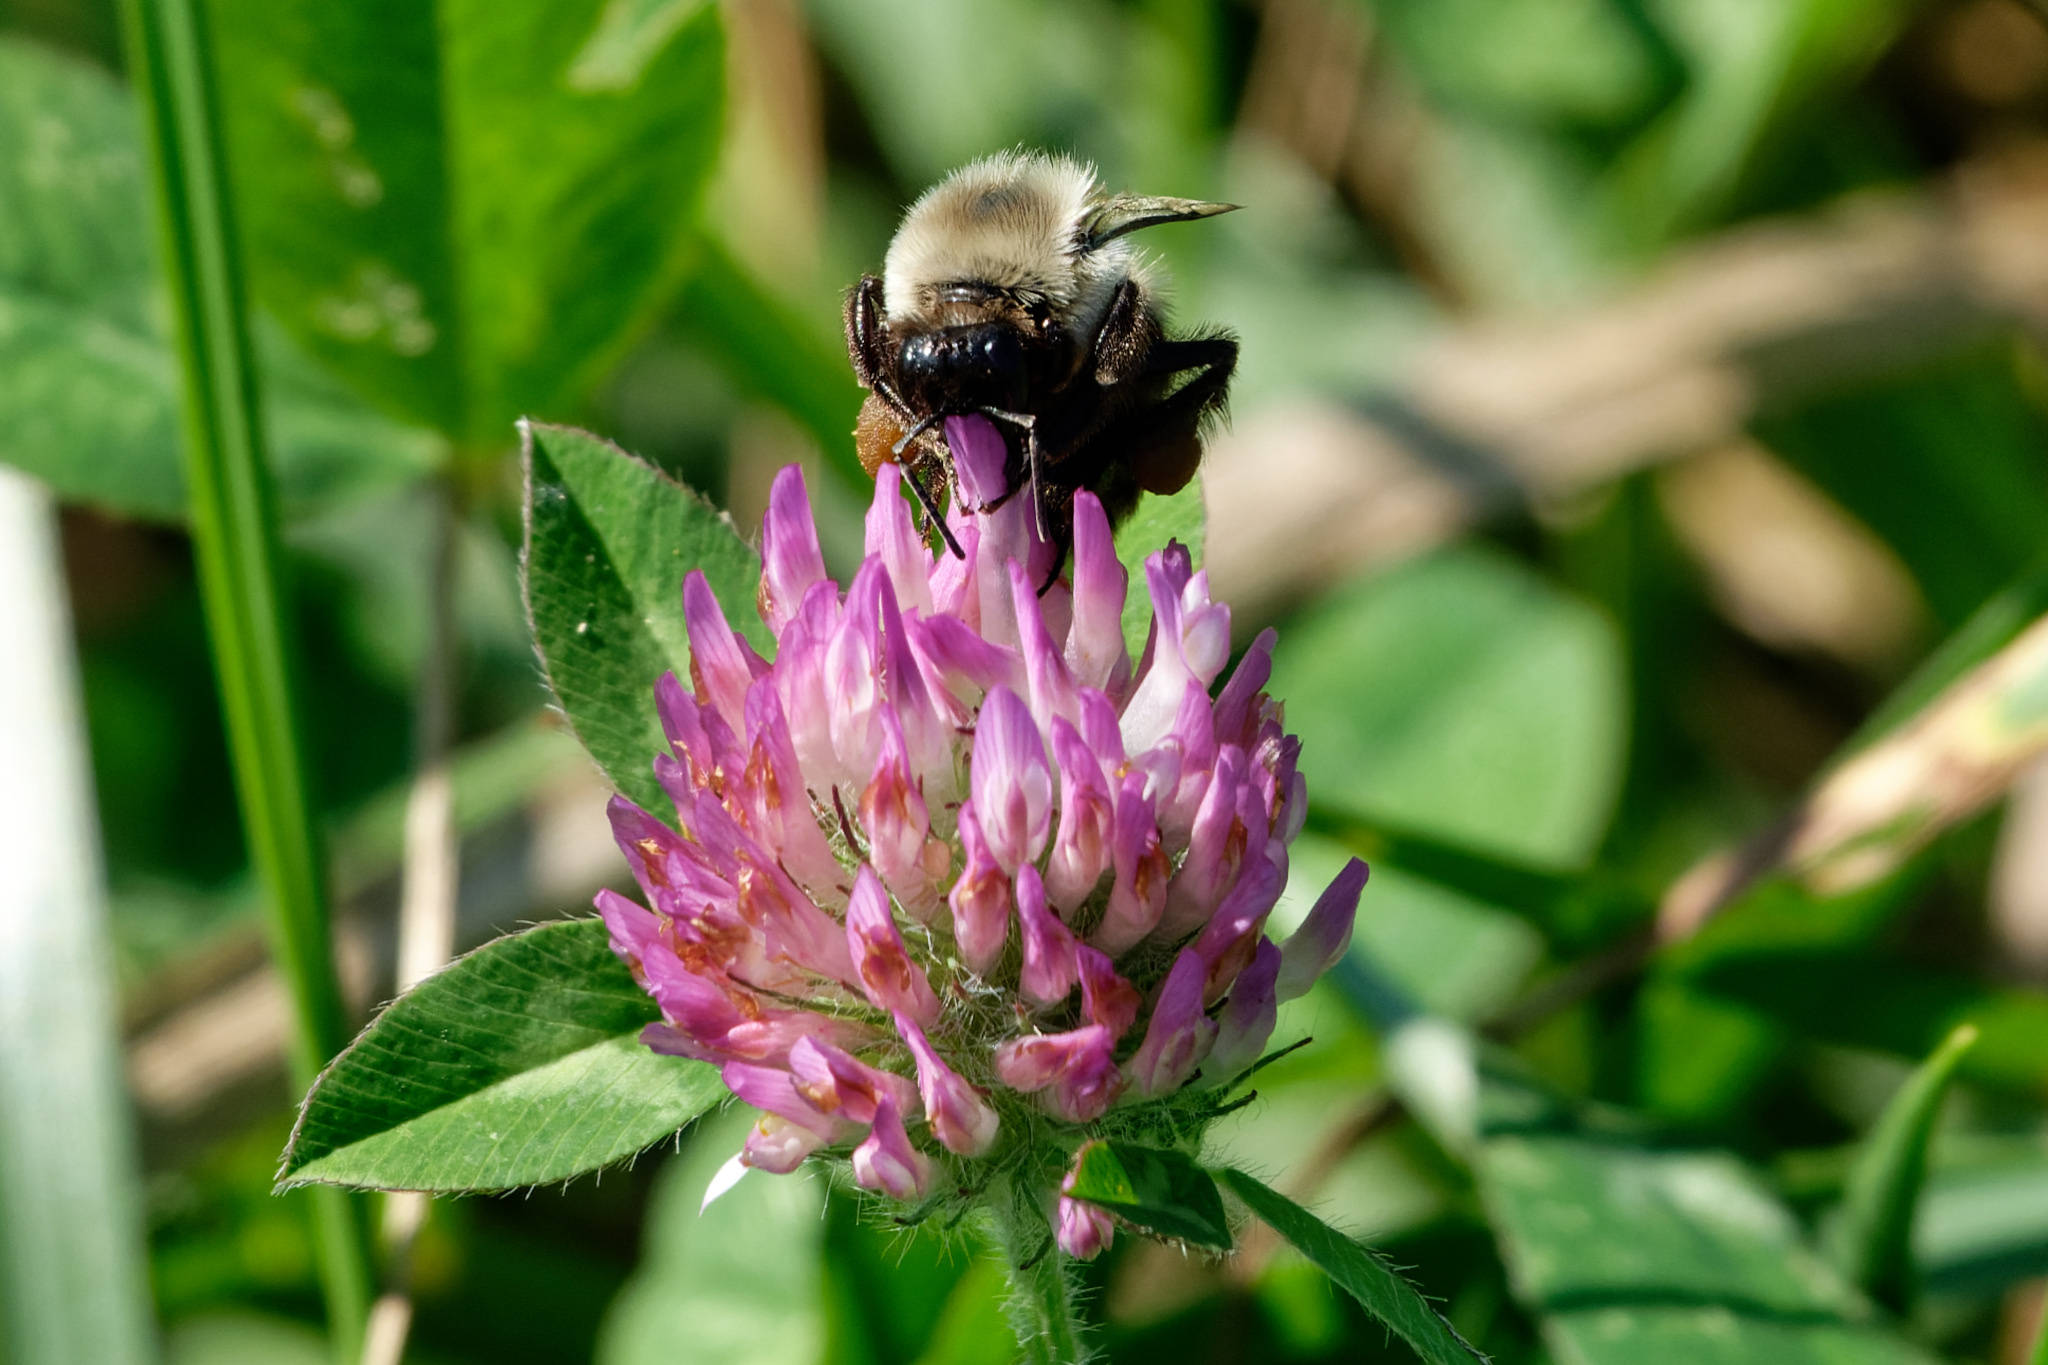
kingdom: Plantae
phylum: Tracheophyta
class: Magnoliopsida
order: Fabales
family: Fabaceae
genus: Trifolium
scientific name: Trifolium pratense
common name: Red clover
